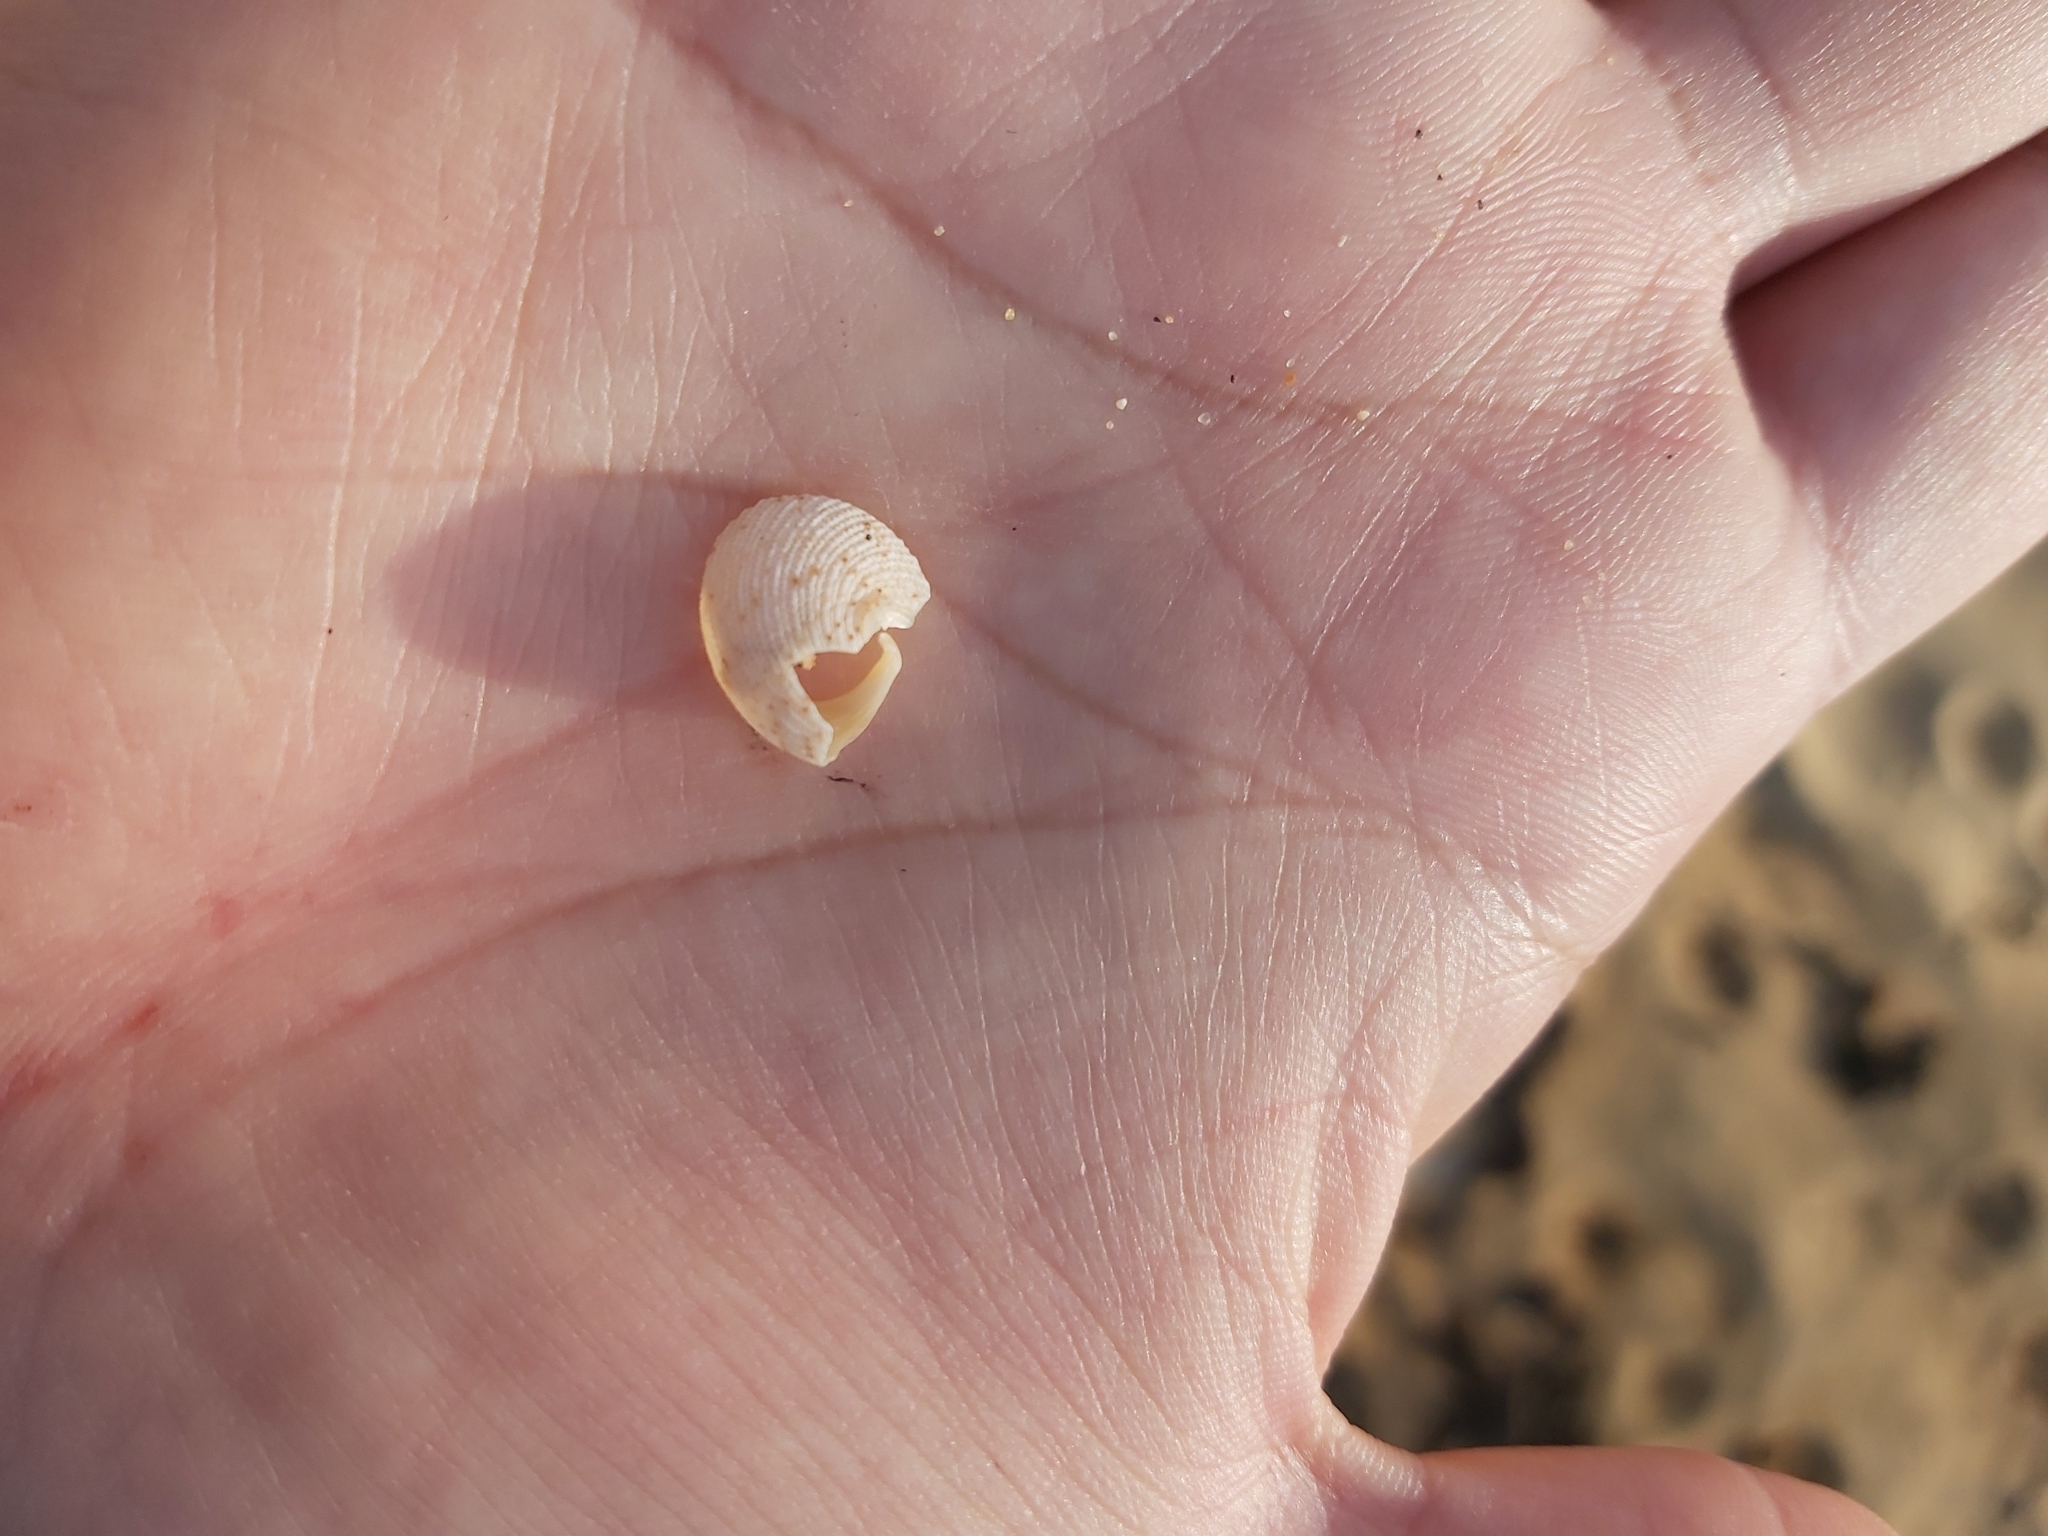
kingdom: Animalia
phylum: Mollusca
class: Gastropoda
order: Seguenziida
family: Chilodontaidae
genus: Granata
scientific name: Granata imbricata
